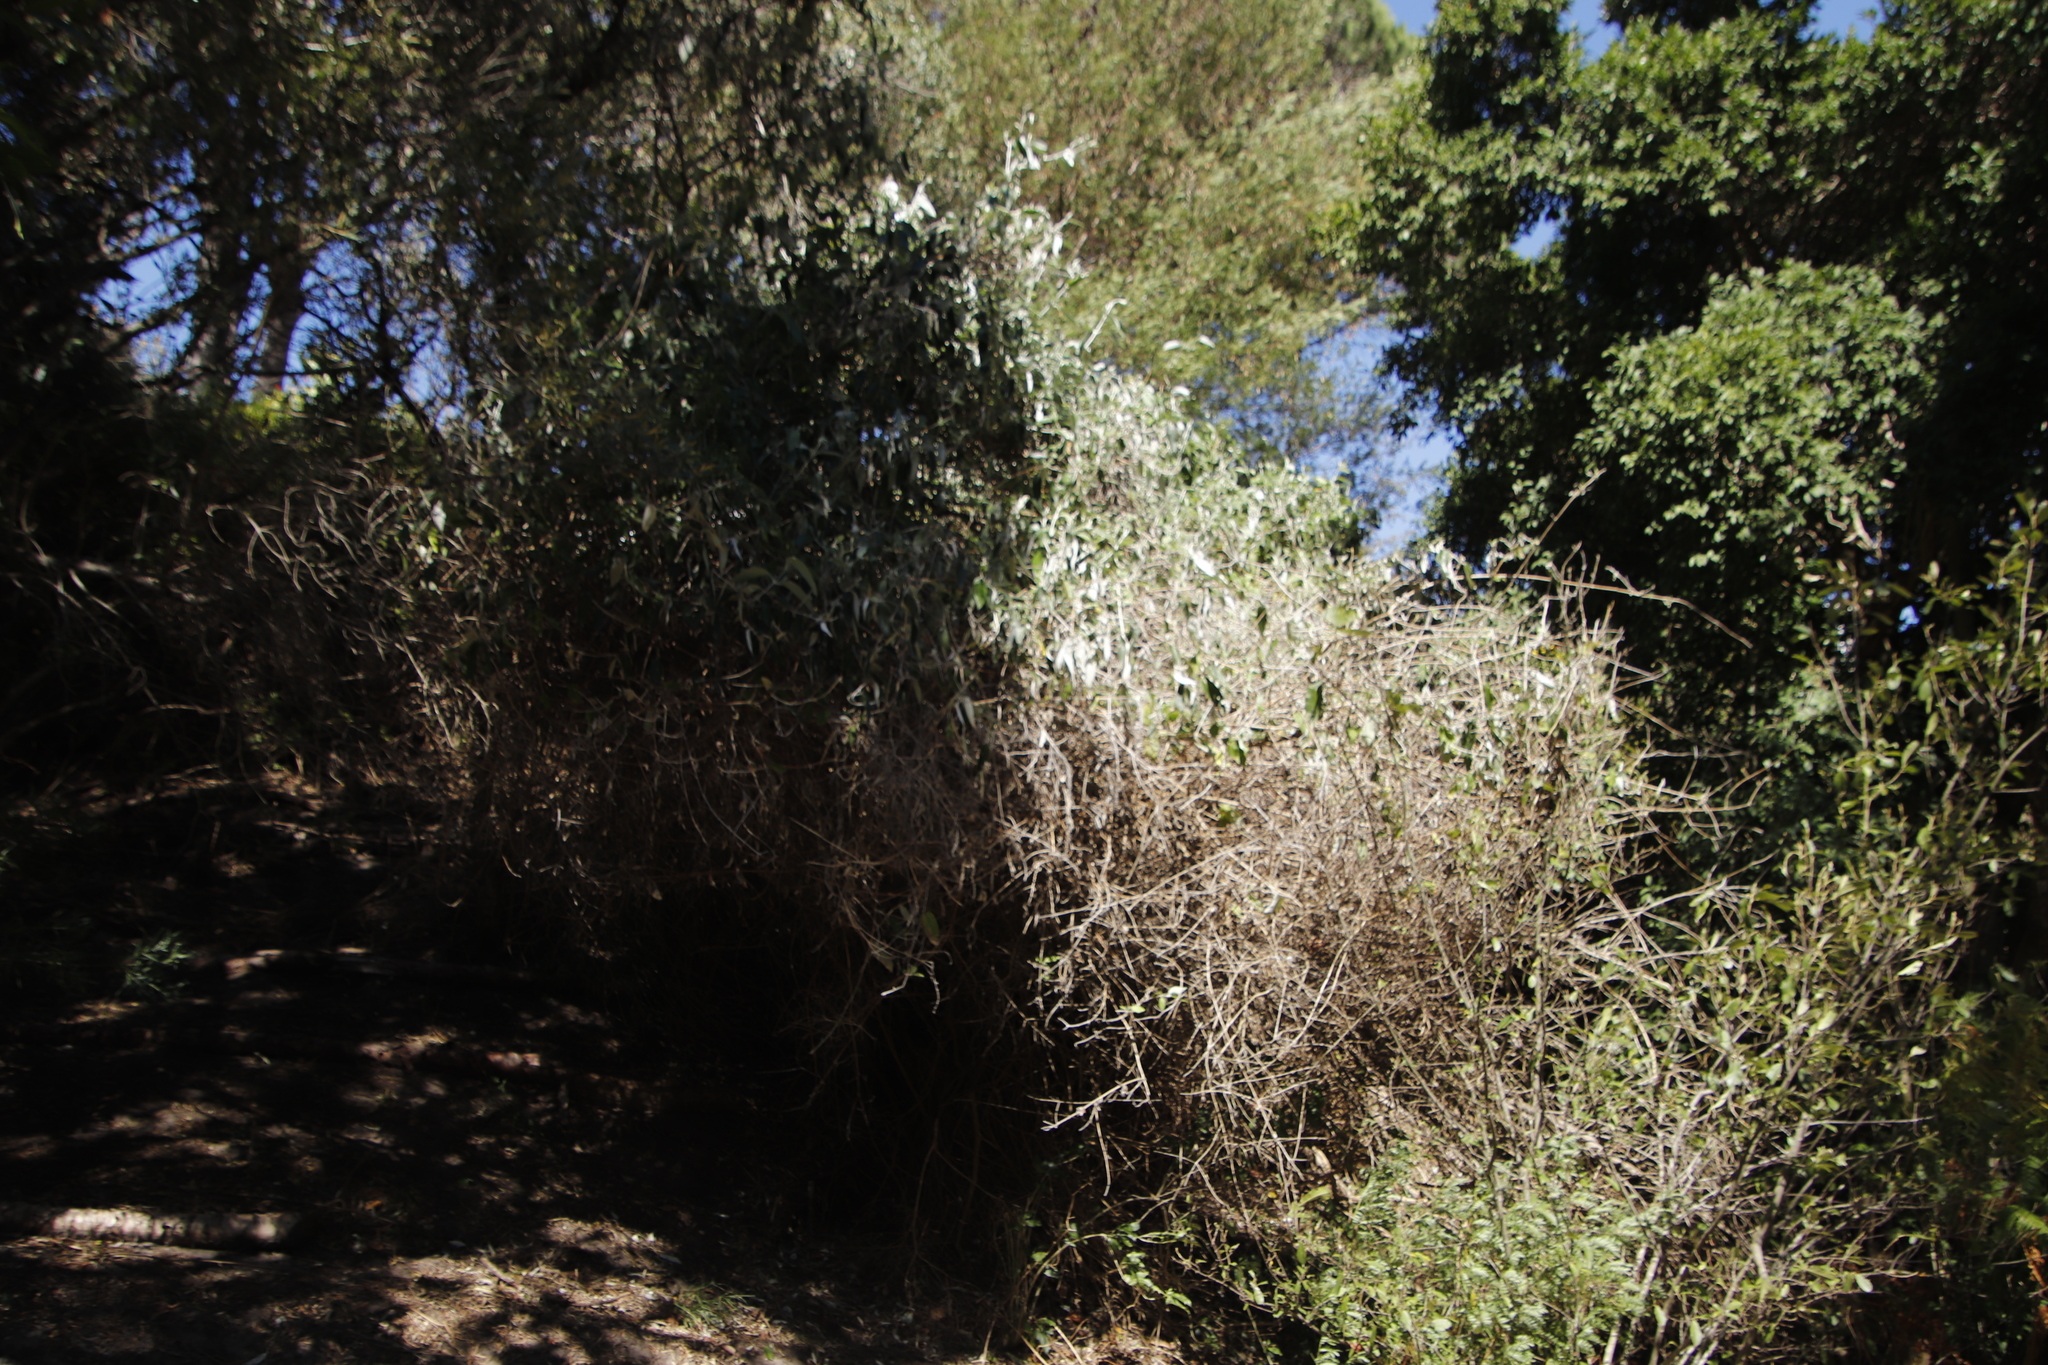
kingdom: Plantae
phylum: Tracheophyta
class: Magnoliopsida
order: Lamiales
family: Scrophulariaceae
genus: Buddleja
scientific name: Buddleja madagascariensis
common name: Smokebush
